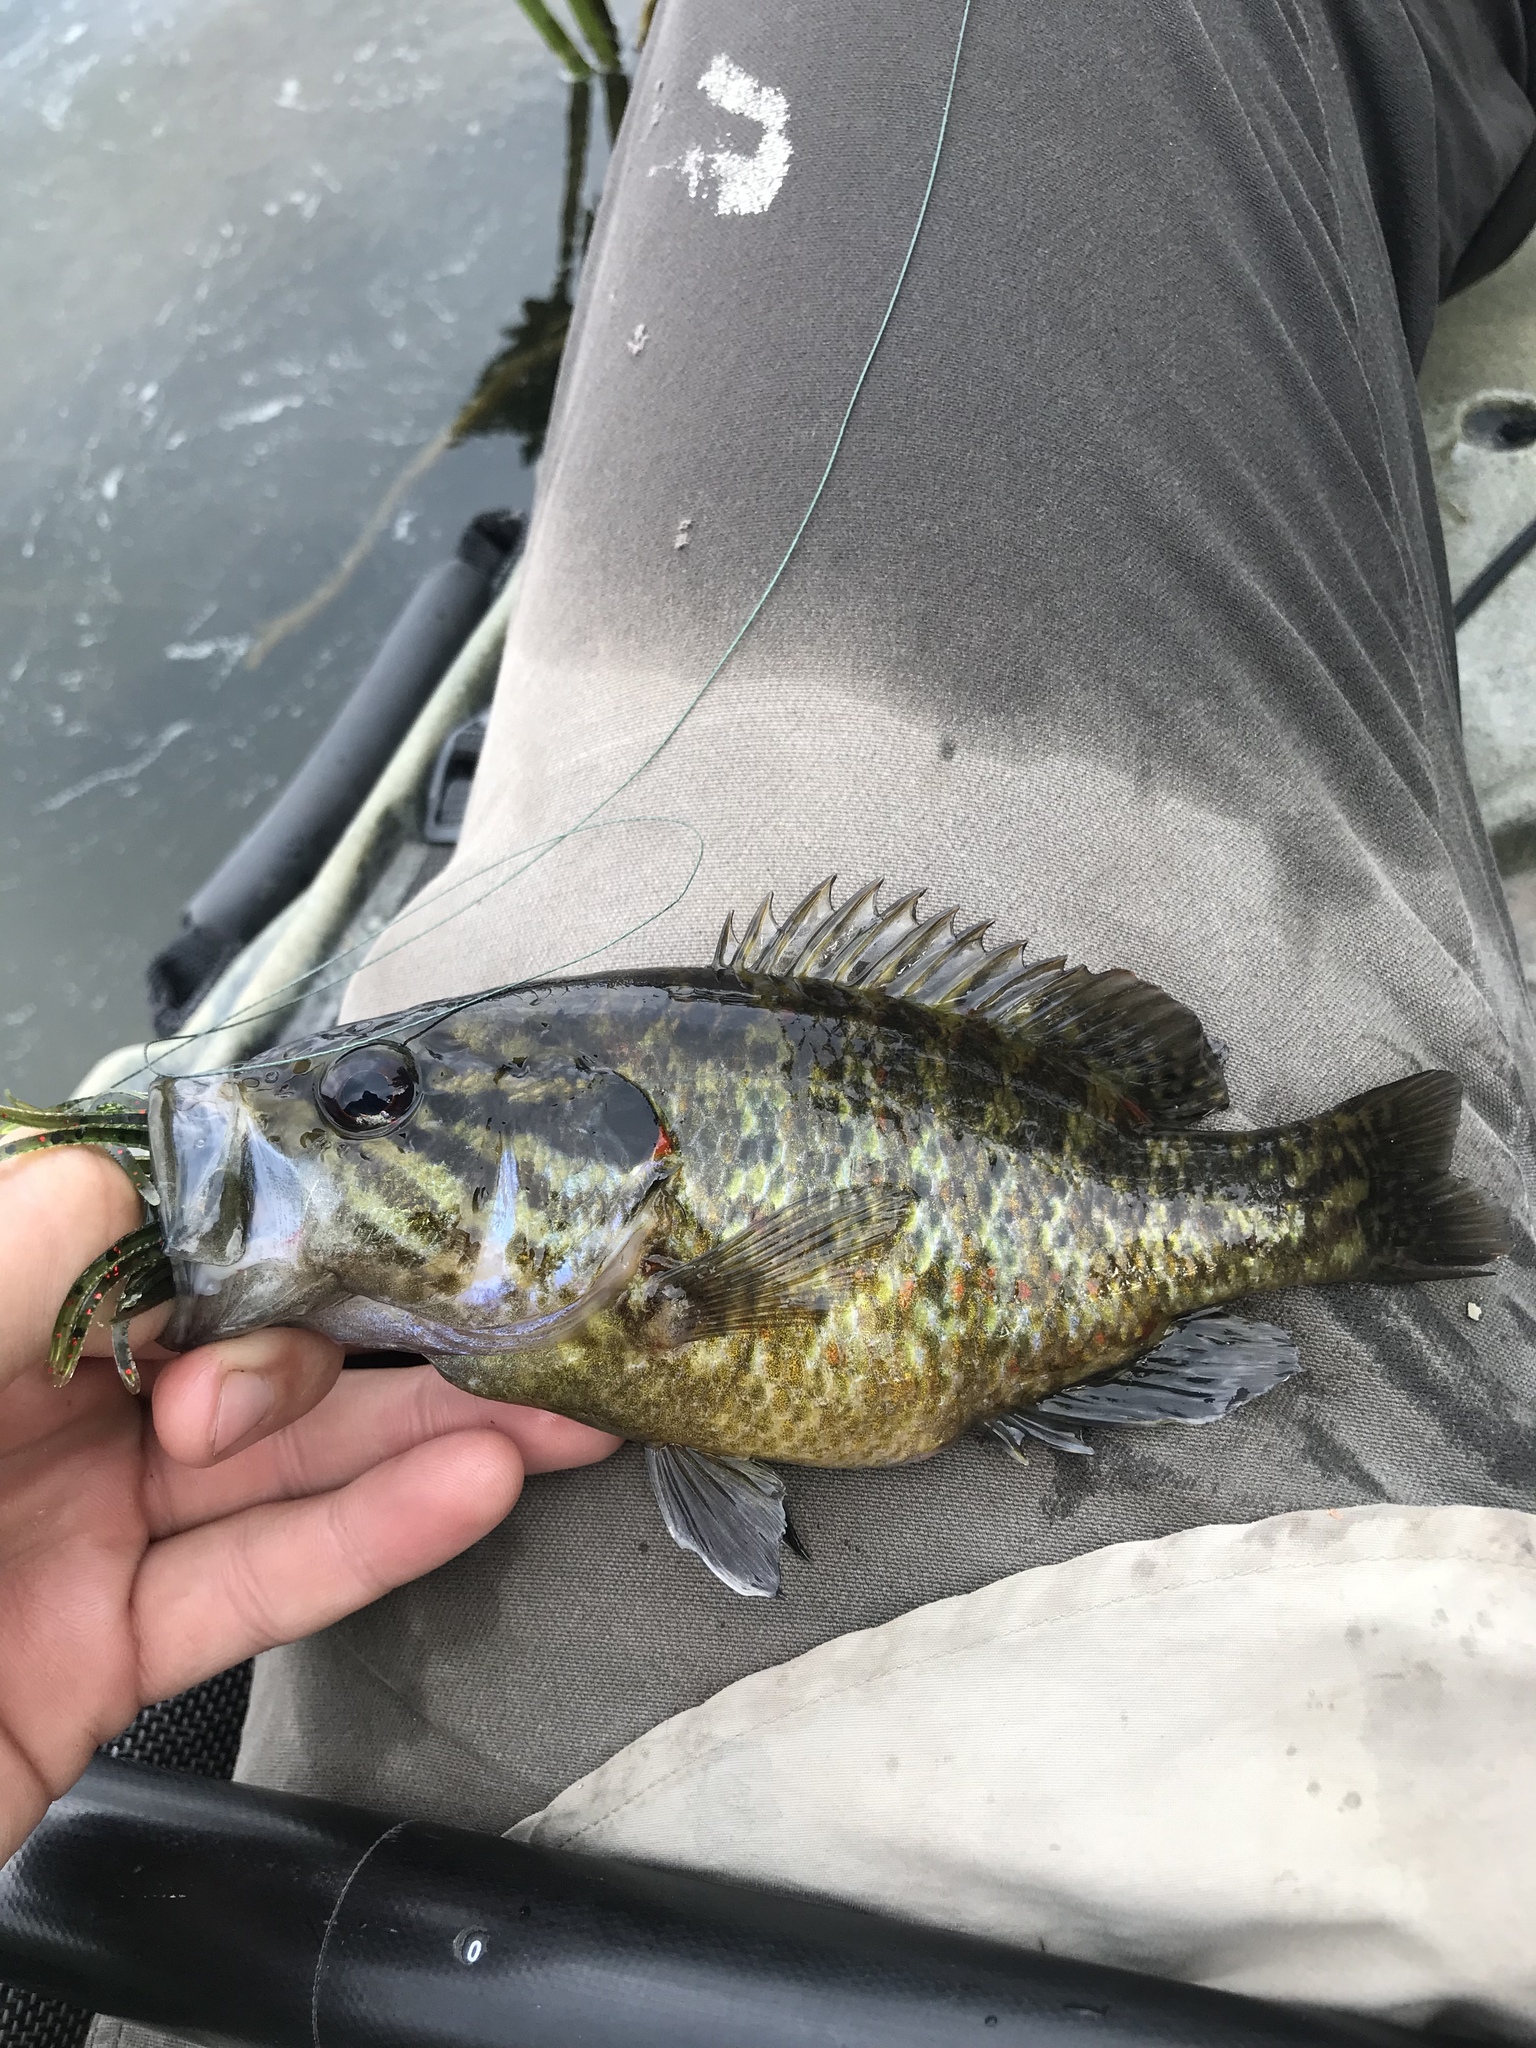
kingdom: Animalia
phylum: Chordata
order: Perciformes
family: Centrarchidae
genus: Lepomis
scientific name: Lepomis gulosus
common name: Warmouth
